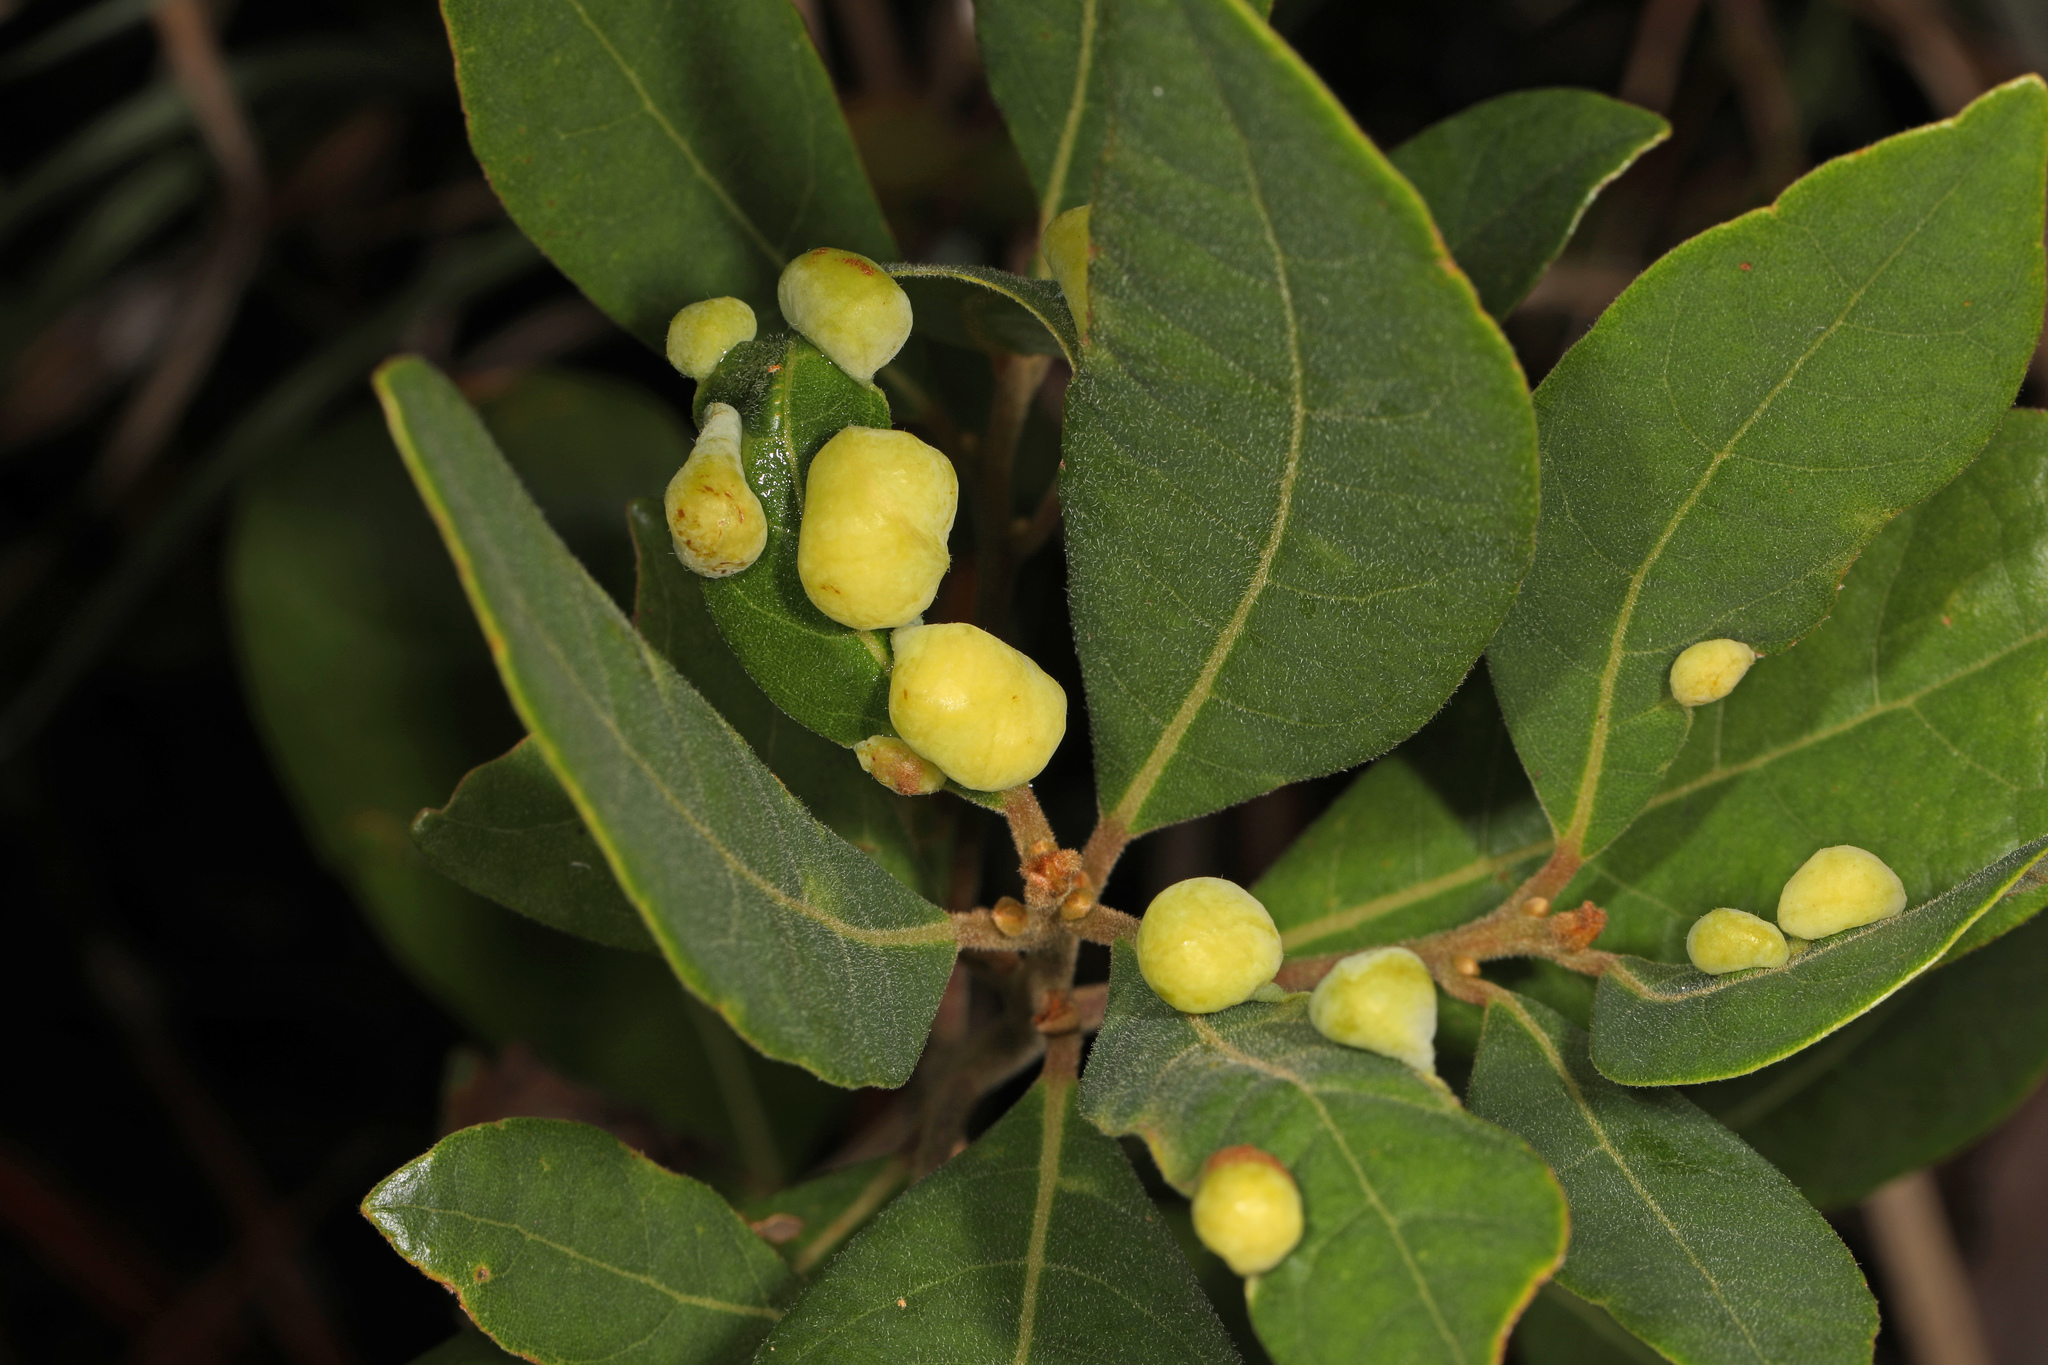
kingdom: Animalia
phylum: Arthropoda
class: Insecta
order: Hemiptera
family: Triozidae
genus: Trioza
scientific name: Trioza magnoliae
